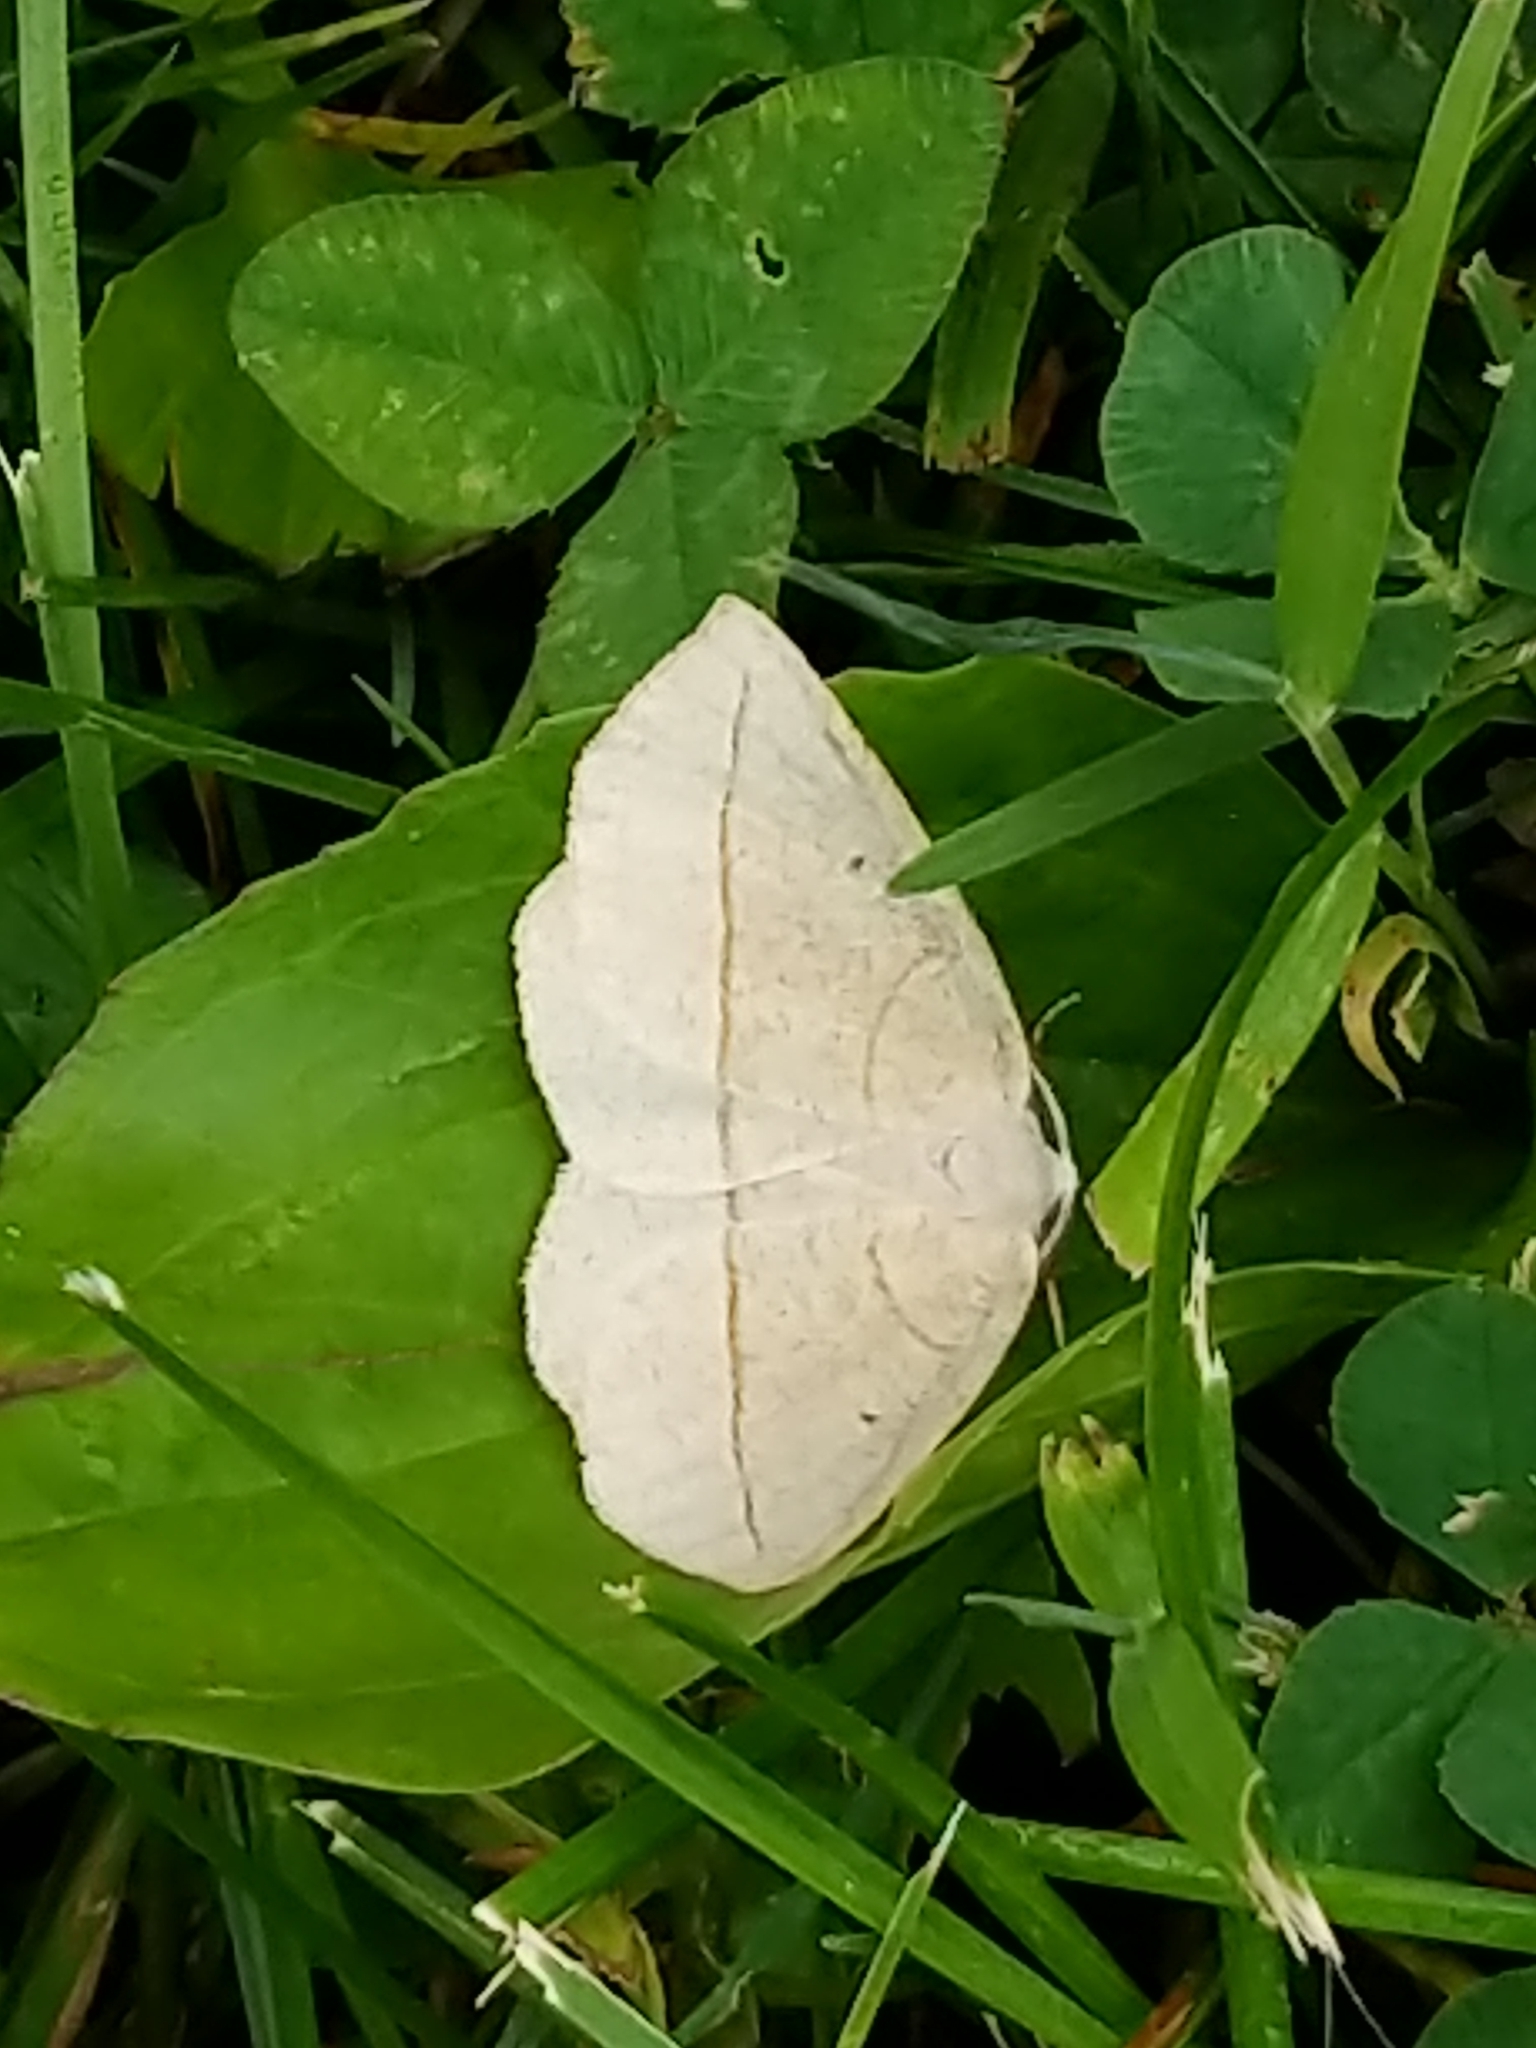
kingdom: Animalia
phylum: Arthropoda
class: Insecta
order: Lepidoptera
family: Geometridae
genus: Eusarca
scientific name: Eusarca confusaria
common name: Confused eusarca
